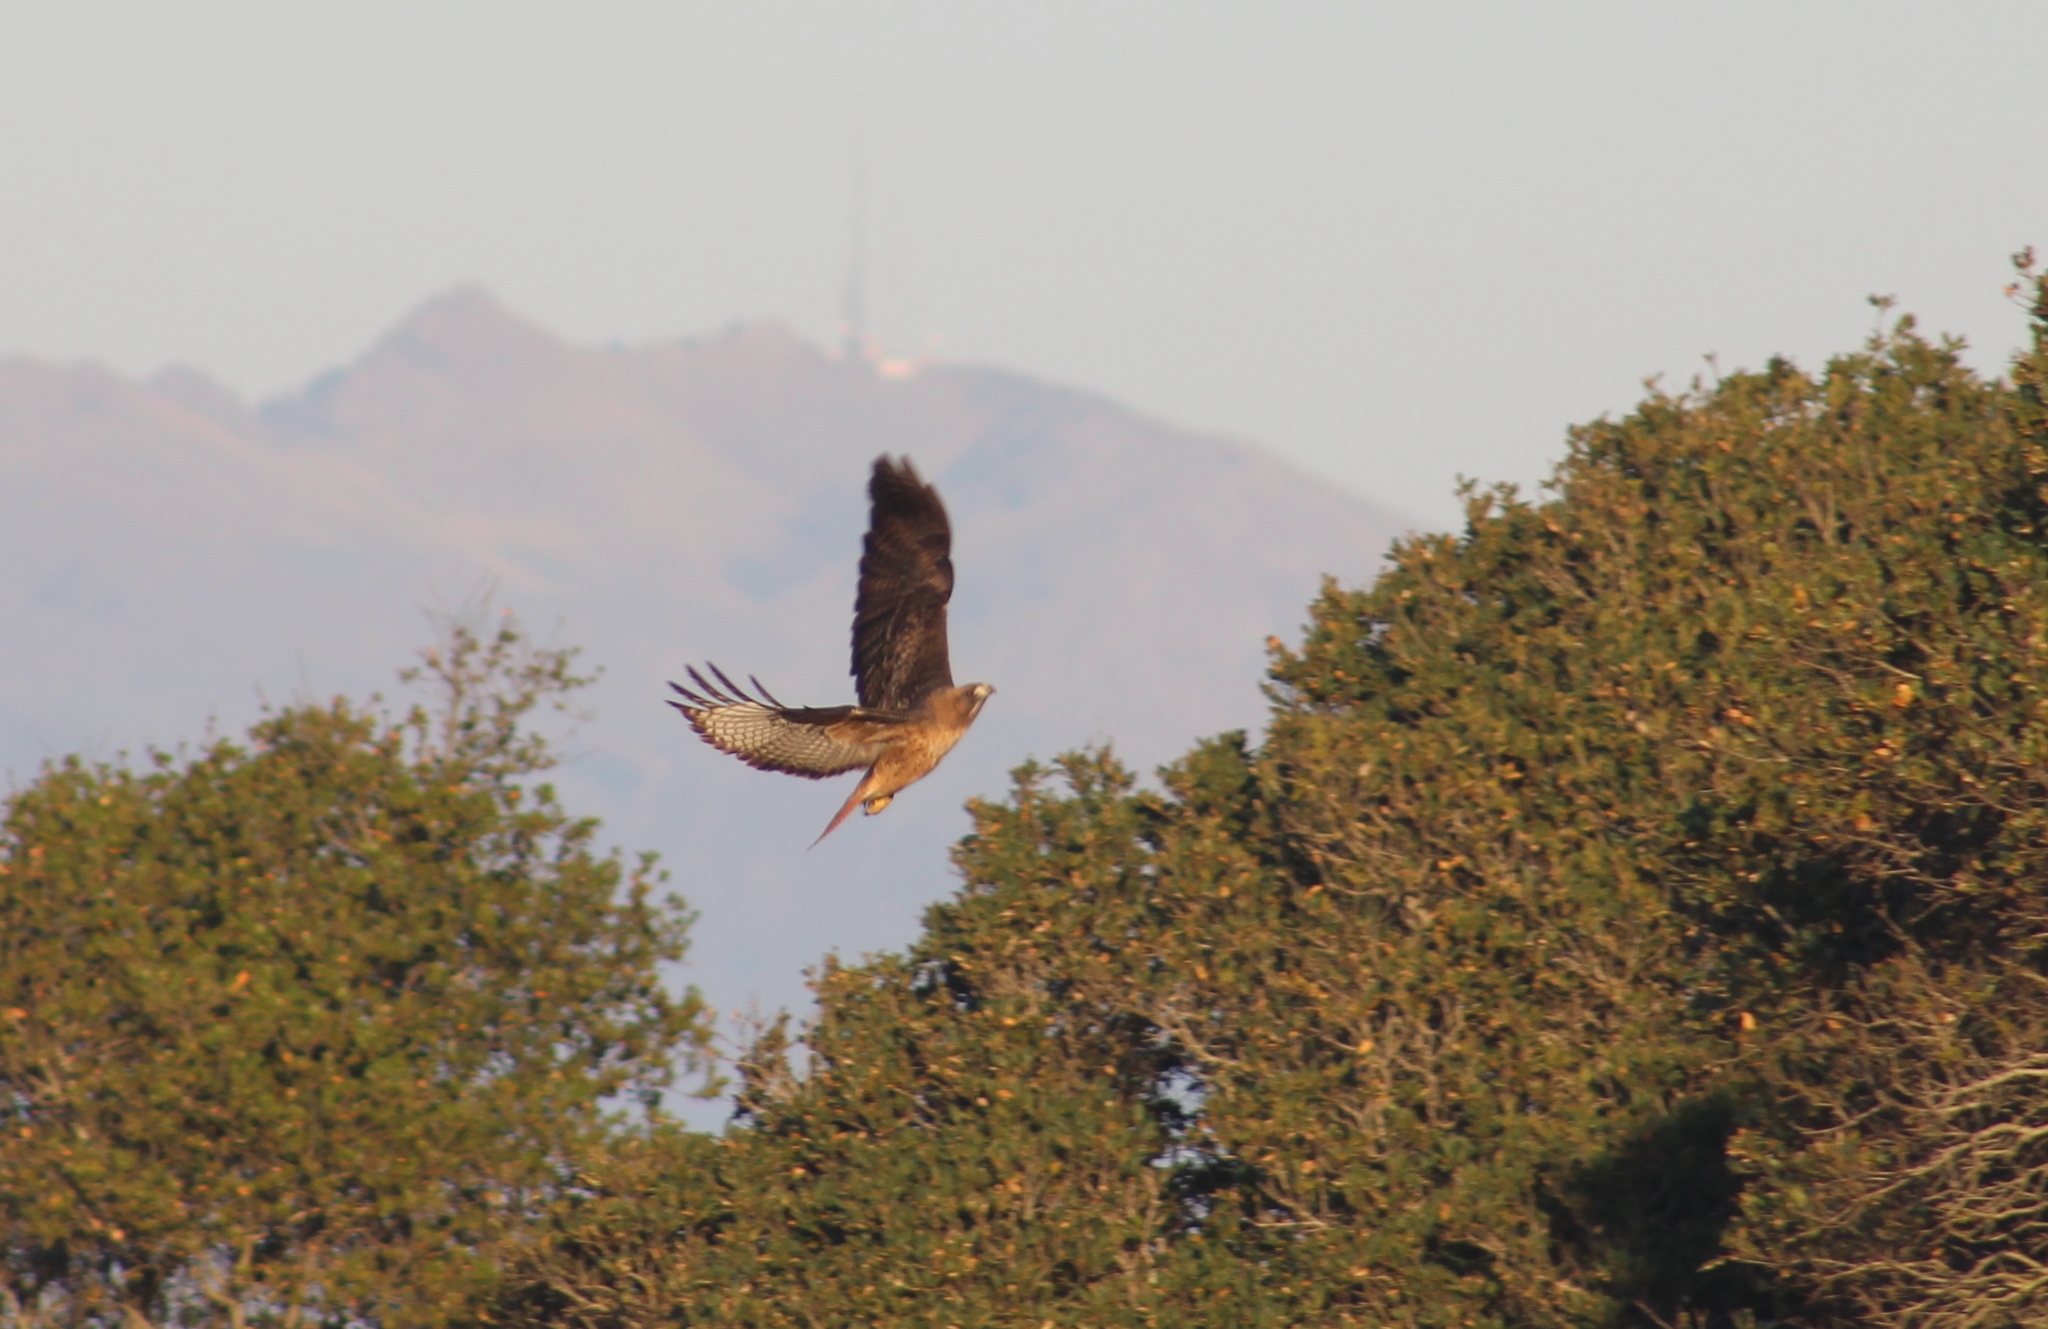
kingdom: Animalia
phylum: Chordata
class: Aves
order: Accipitriformes
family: Accipitridae
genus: Buteo
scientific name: Buteo jamaicensis
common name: Red-tailed hawk
